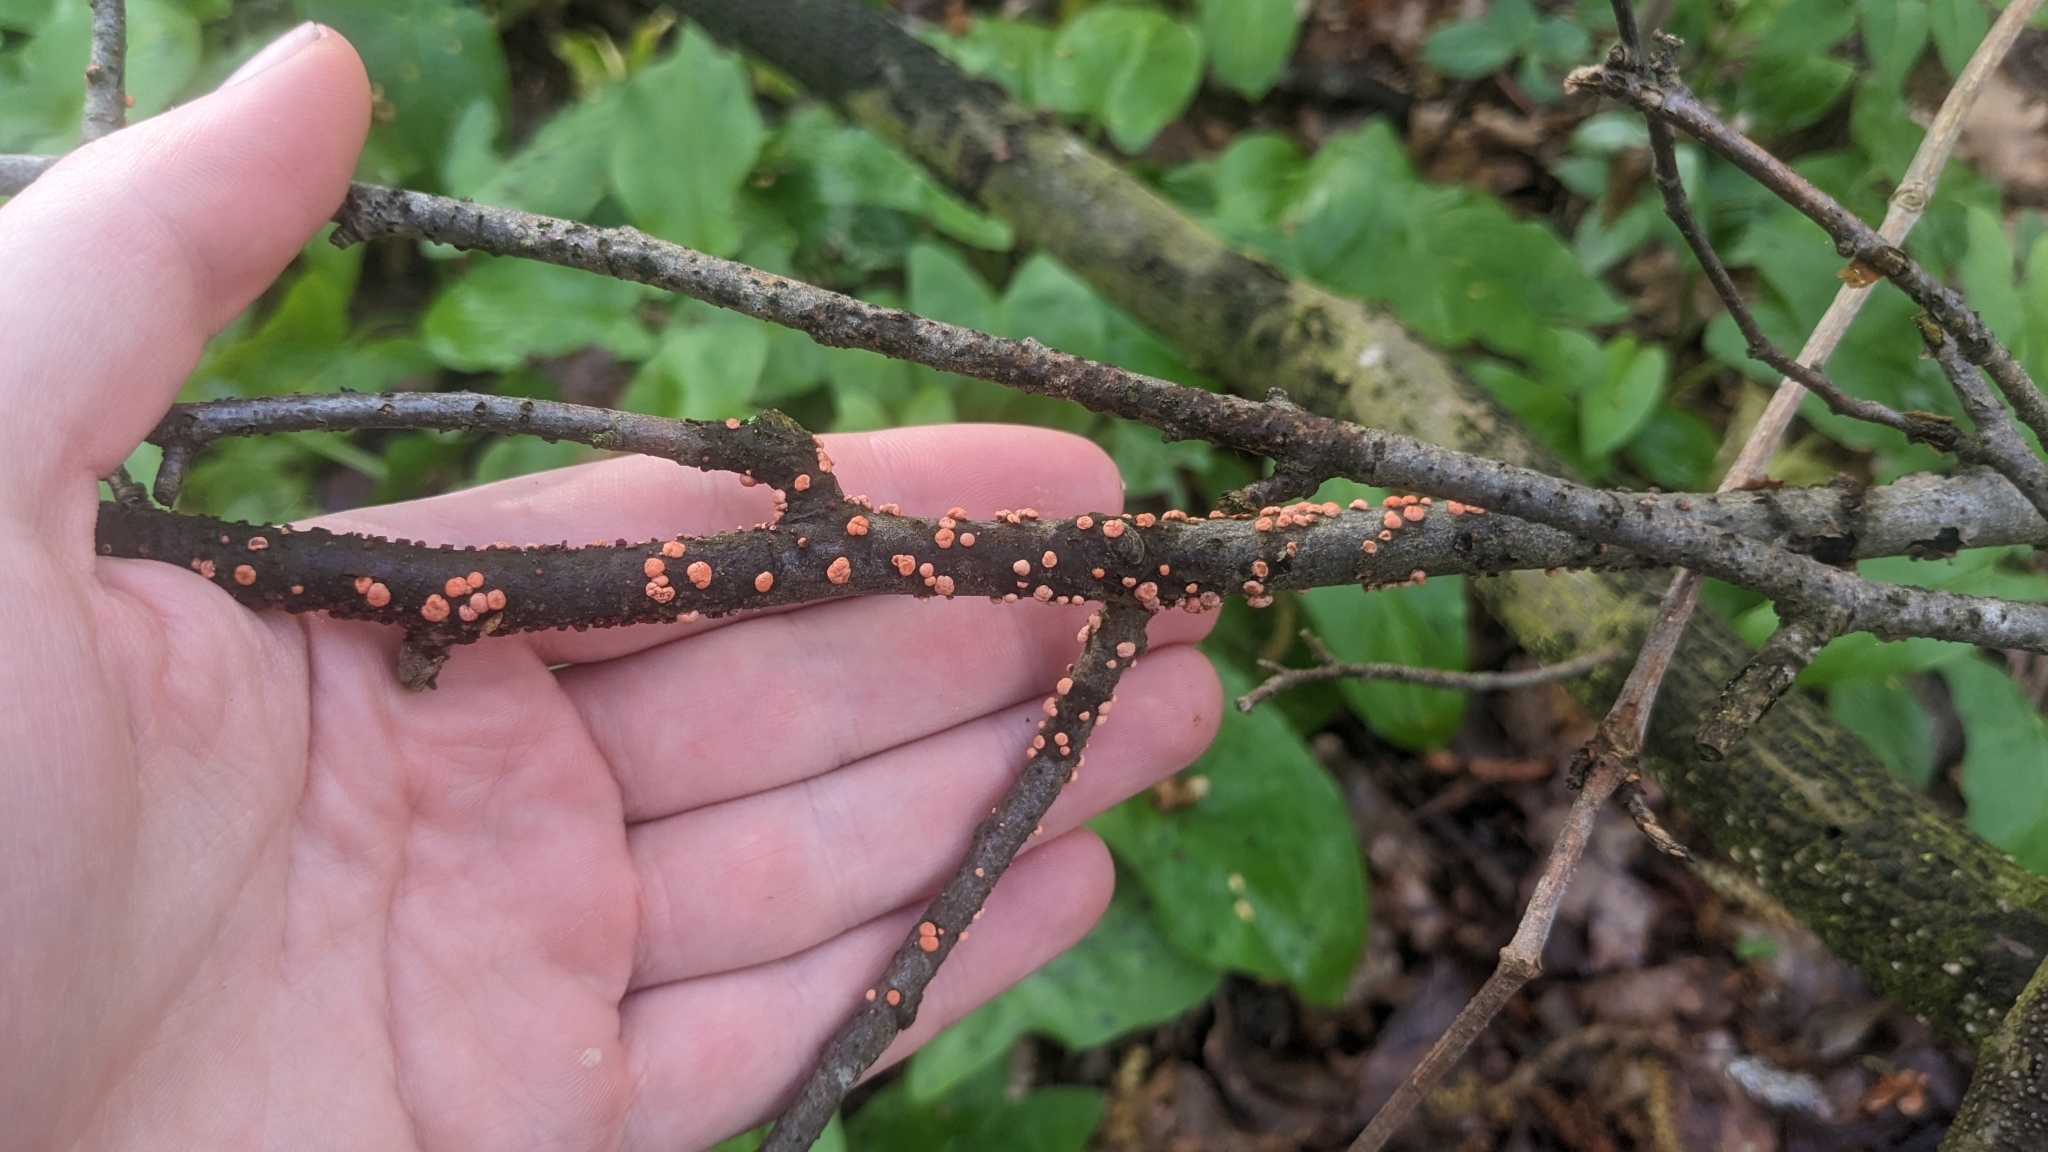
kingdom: Fungi
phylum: Ascomycota
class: Sordariomycetes
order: Hypocreales
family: Nectriaceae
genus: Nectria
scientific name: Nectria cinnabarina
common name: Coral spot
